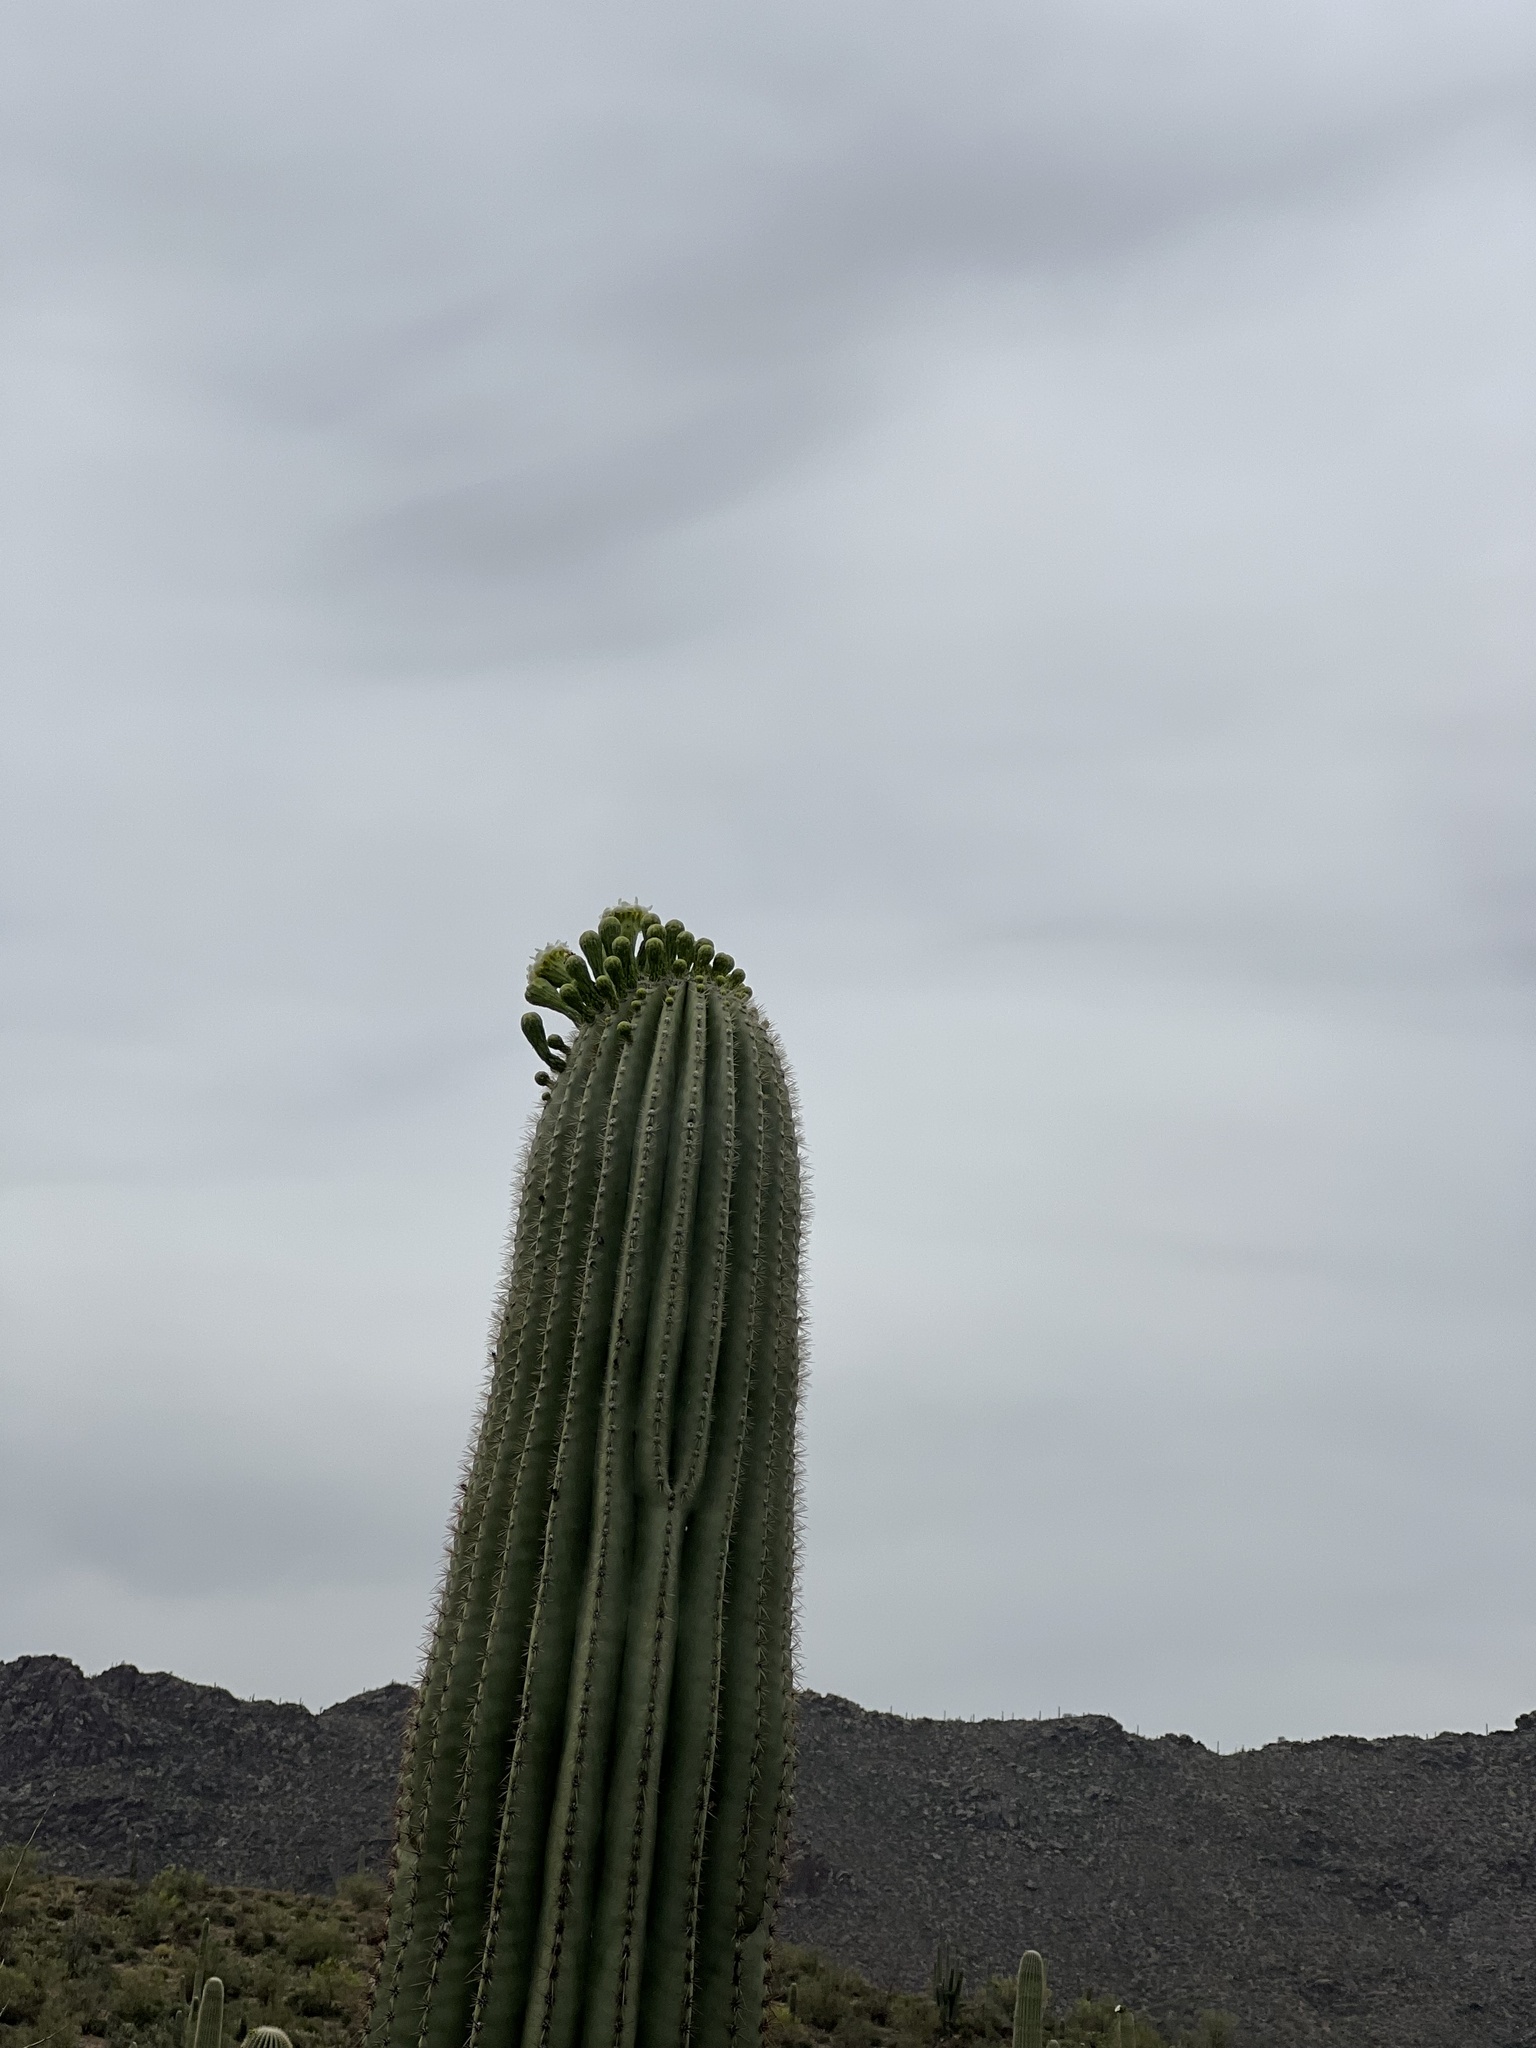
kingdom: Plantae
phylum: Tracheophyta
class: Magnoliopsida
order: Caryophyllales
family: Cactaceae
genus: Carnegiea
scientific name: Carnegiea gigantea
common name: Saguaro
